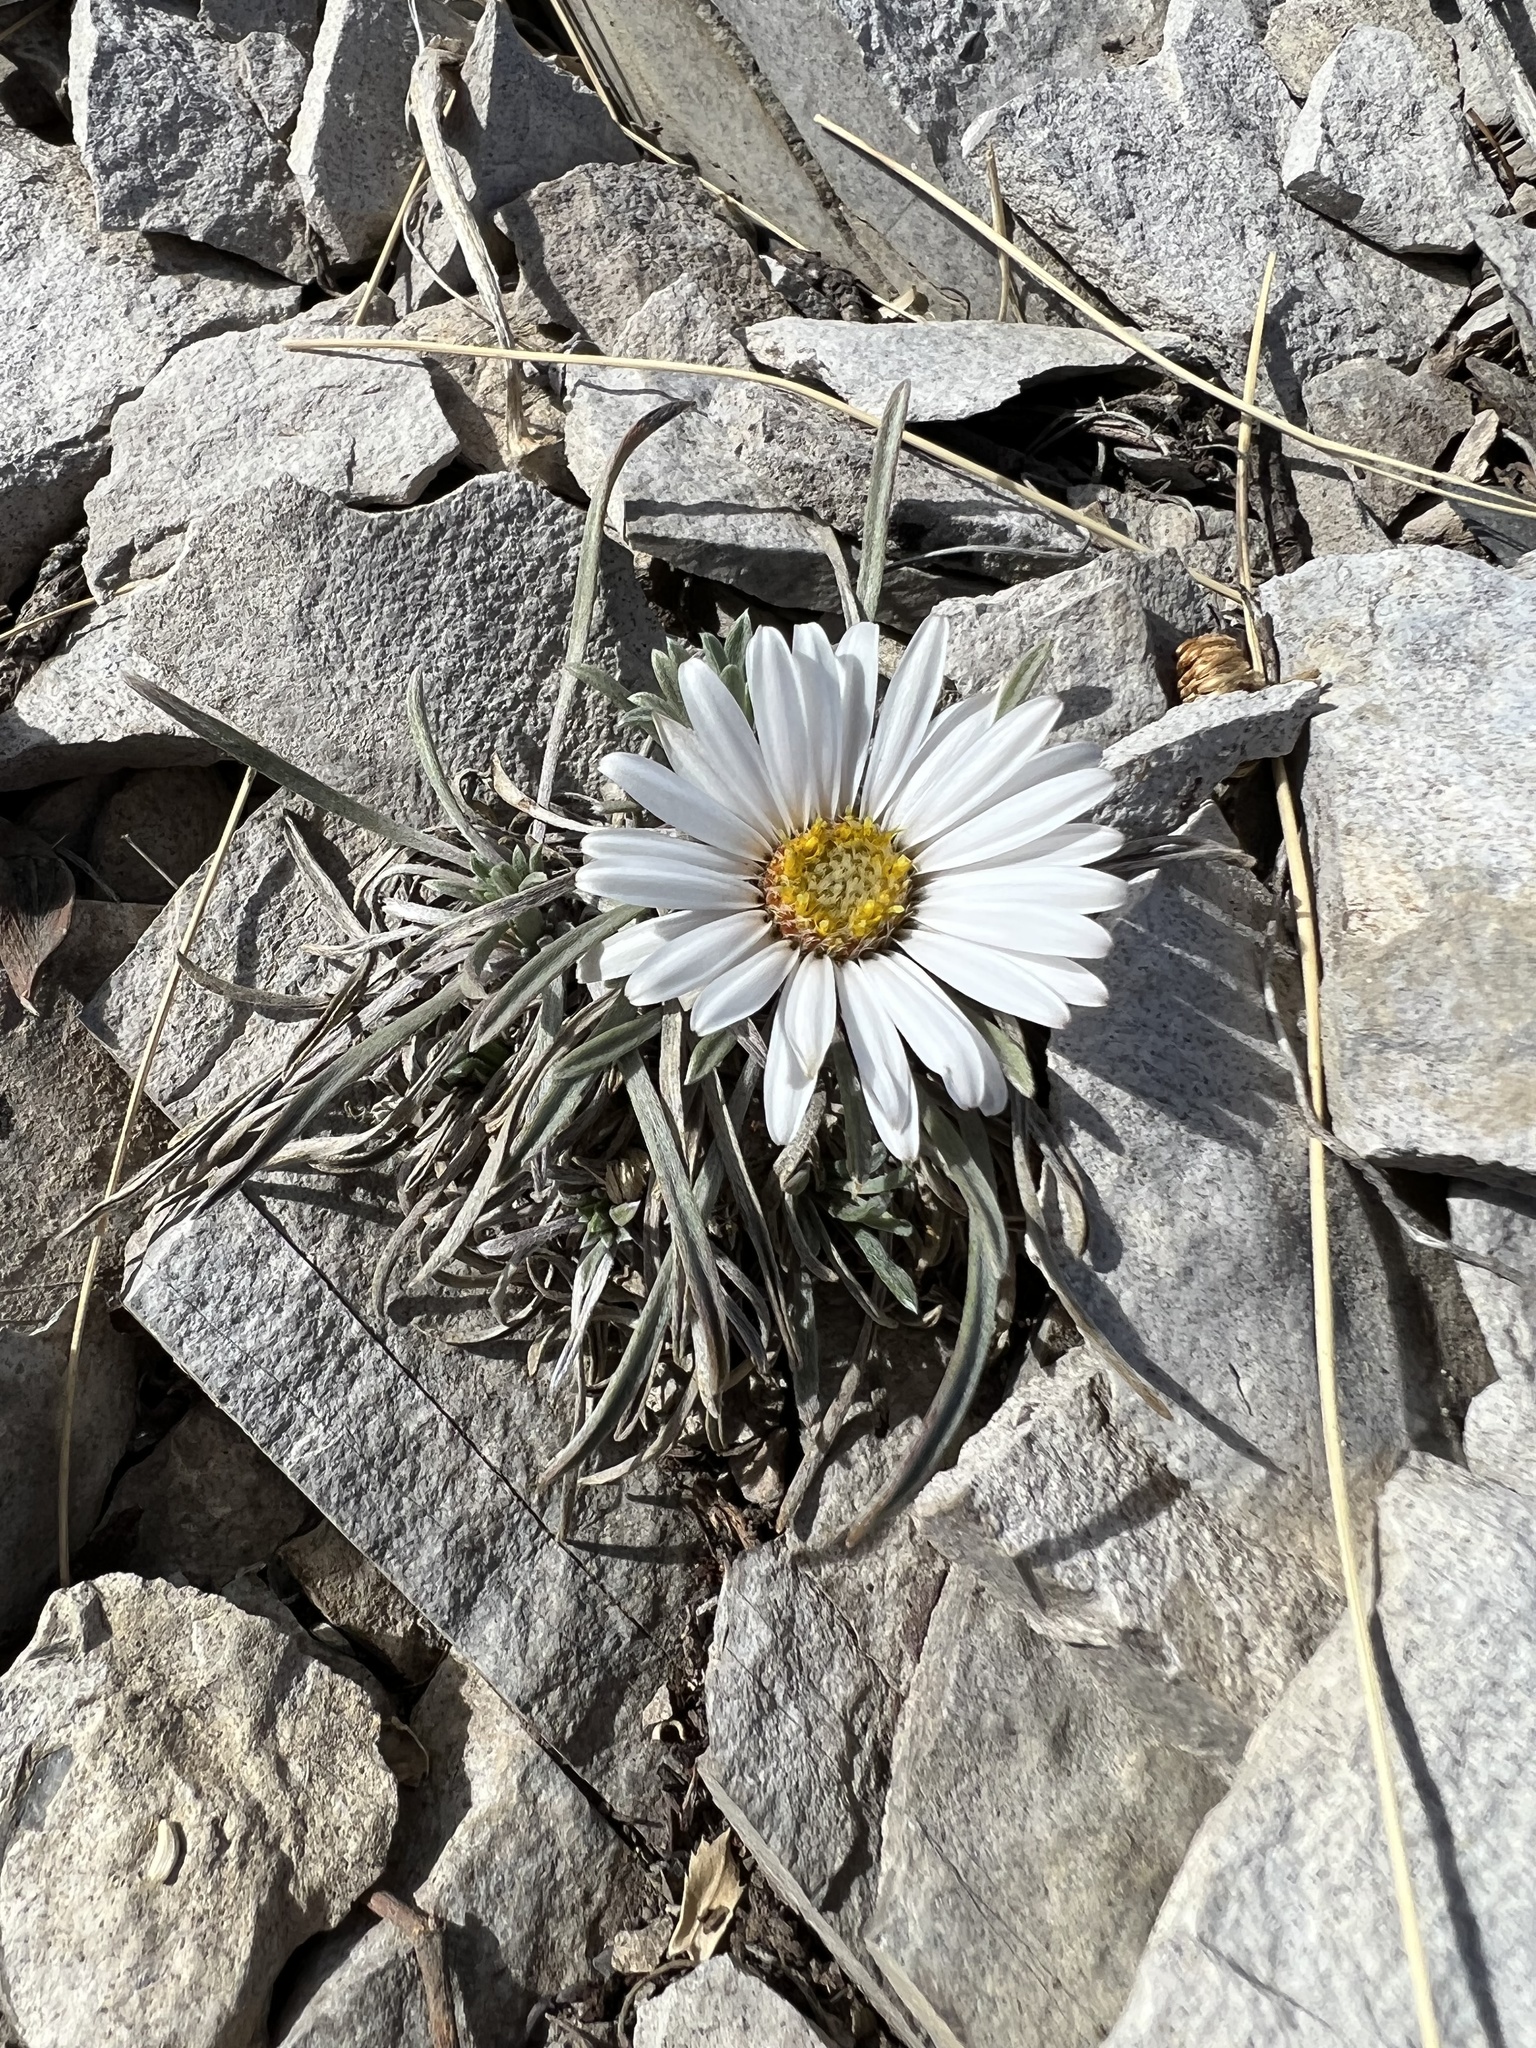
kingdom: Plantae
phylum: Tracheophyta
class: Magnoliopsida
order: Asterales
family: Asteraceae
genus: Townsendia
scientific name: Townsendia hookeri
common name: Hooker's townsend daisy
